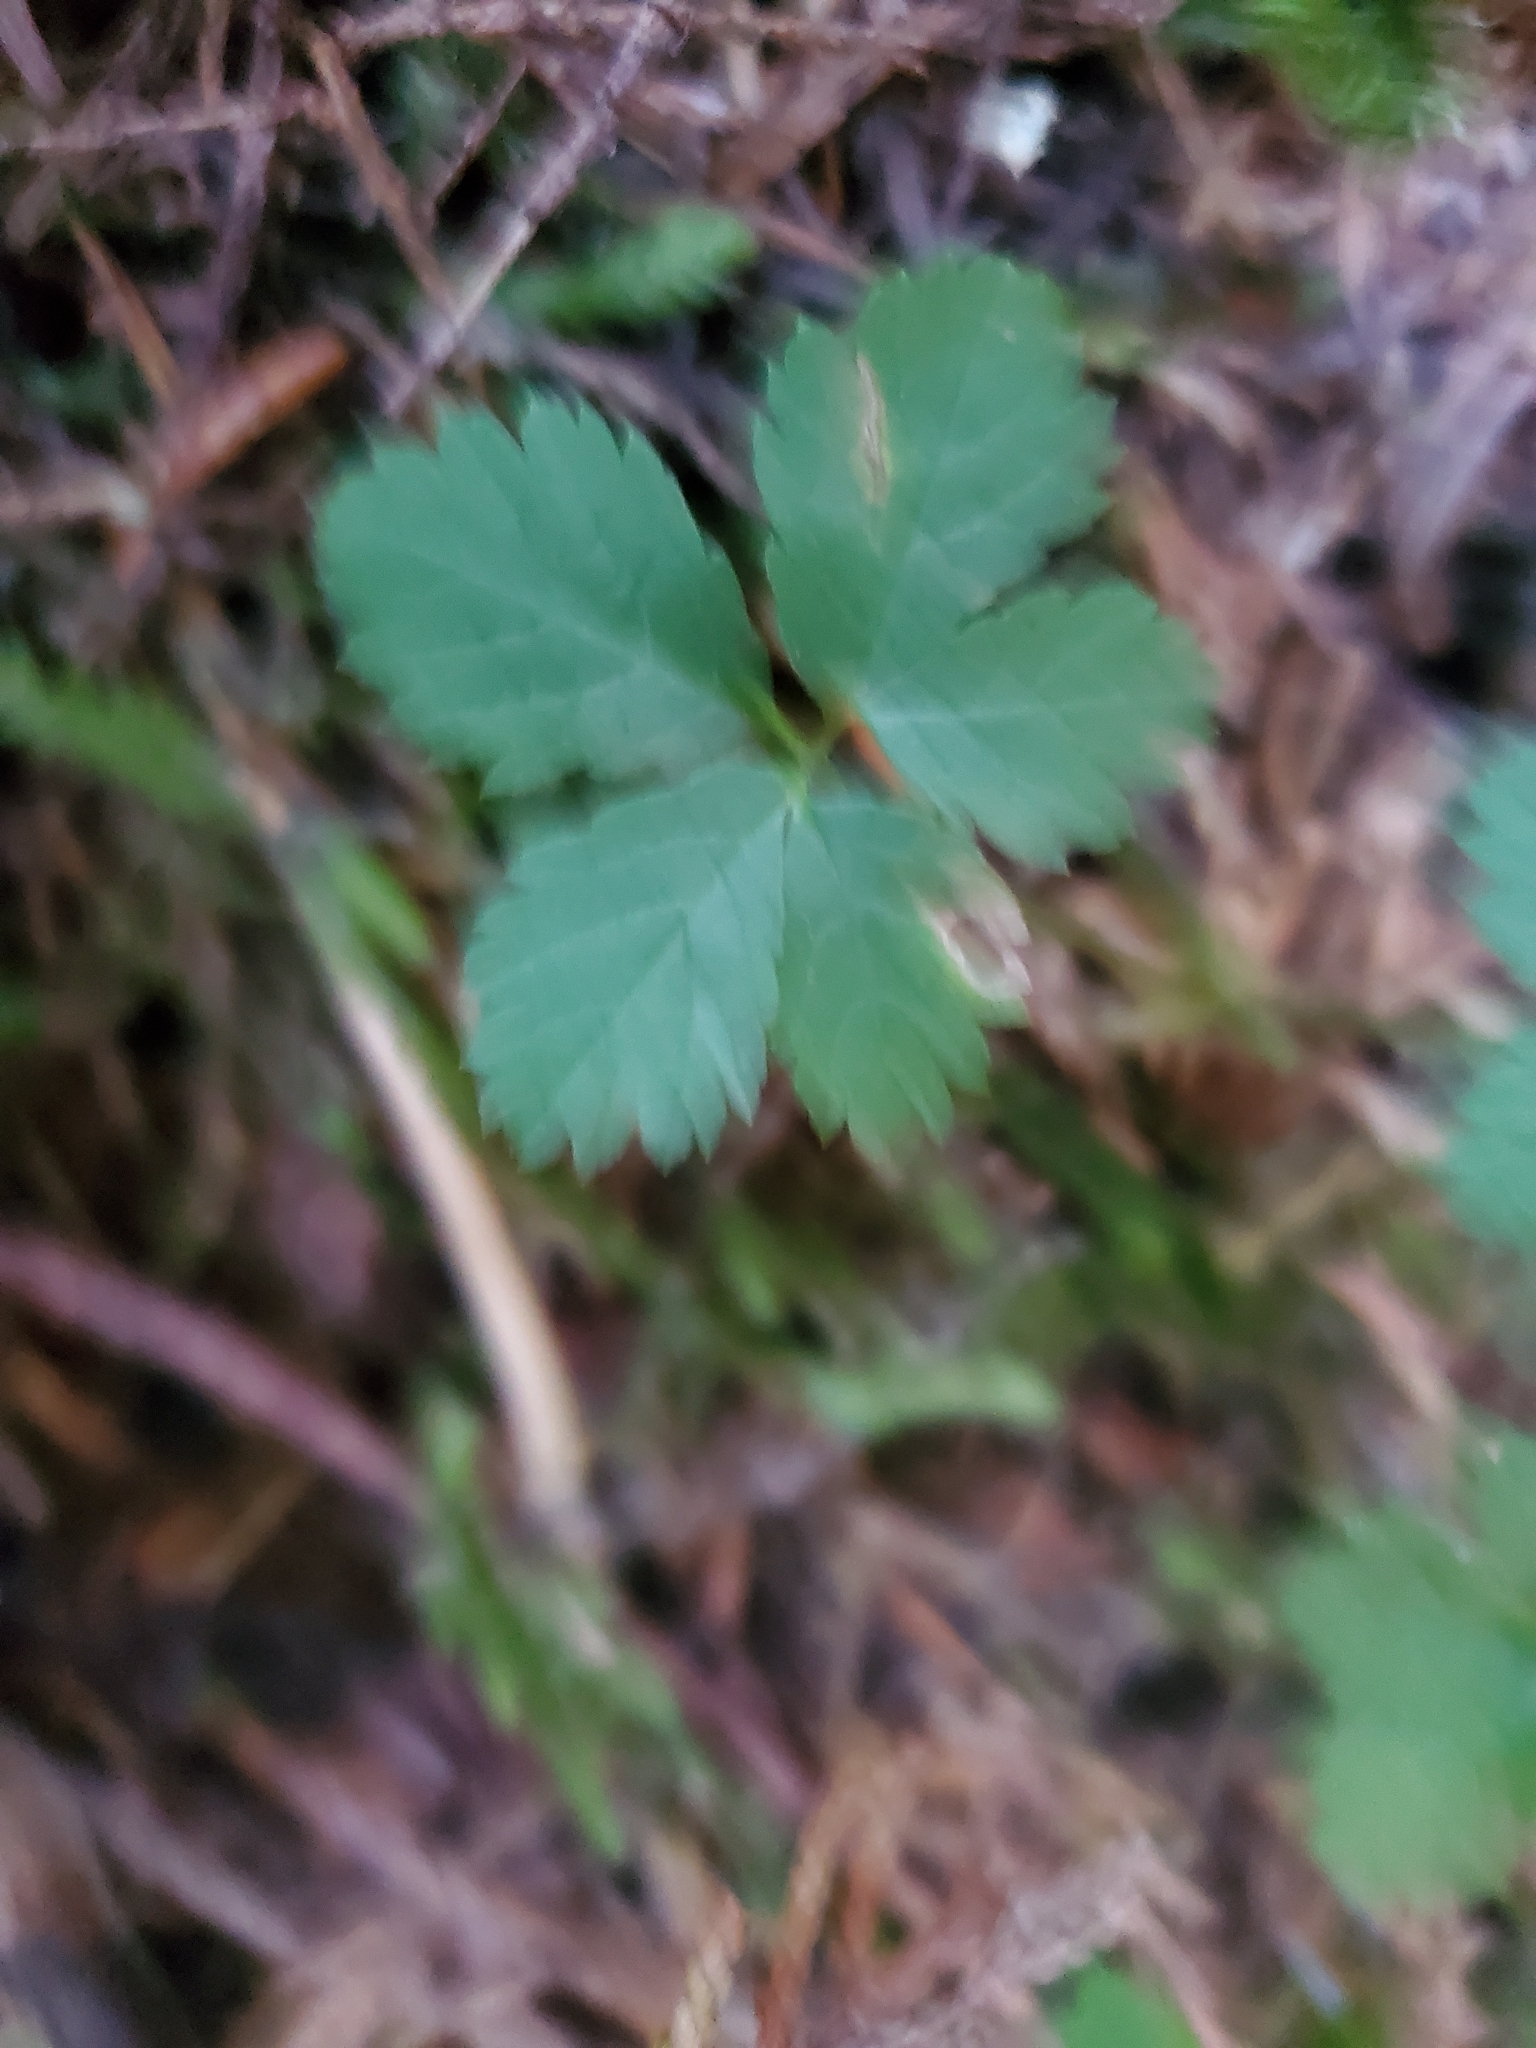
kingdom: Plantae
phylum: Tracheophyta
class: Magnoliopsida
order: Rosales
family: Rosaceae
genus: Rubus
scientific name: Rubus pedatus
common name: Creeping raspberry
